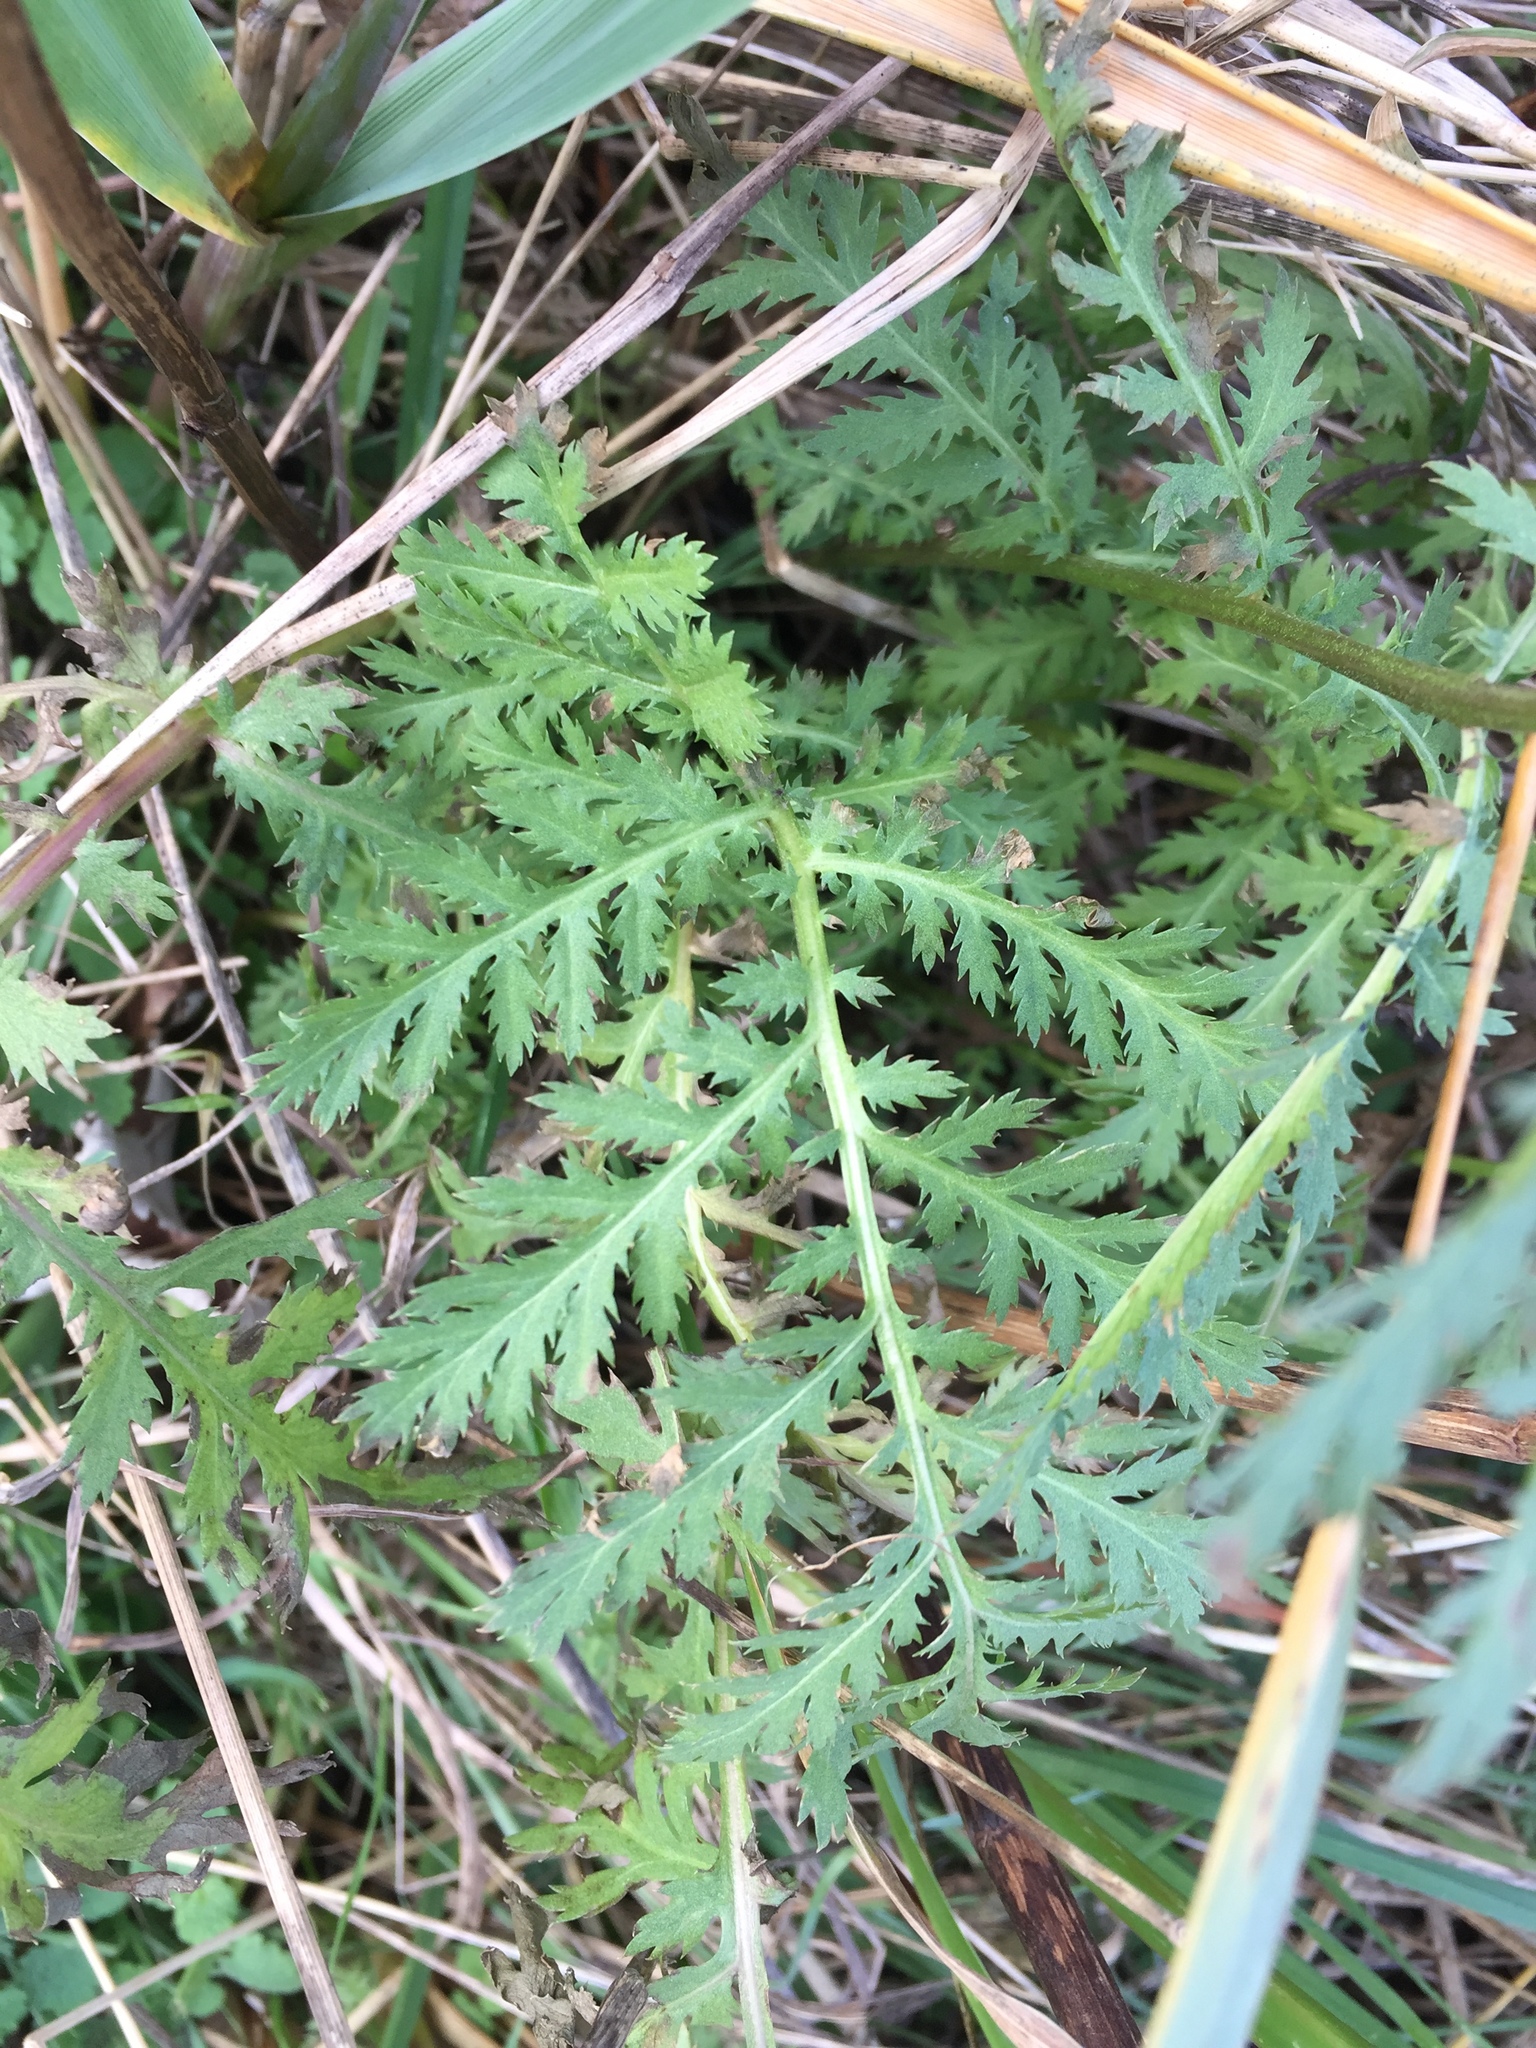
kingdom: Plantae
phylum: Tracheophyta
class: Magnoliopsida
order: Asterales
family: Asteraceae
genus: Tanacetum
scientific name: Tanacetum vulgare
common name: Common tansy
